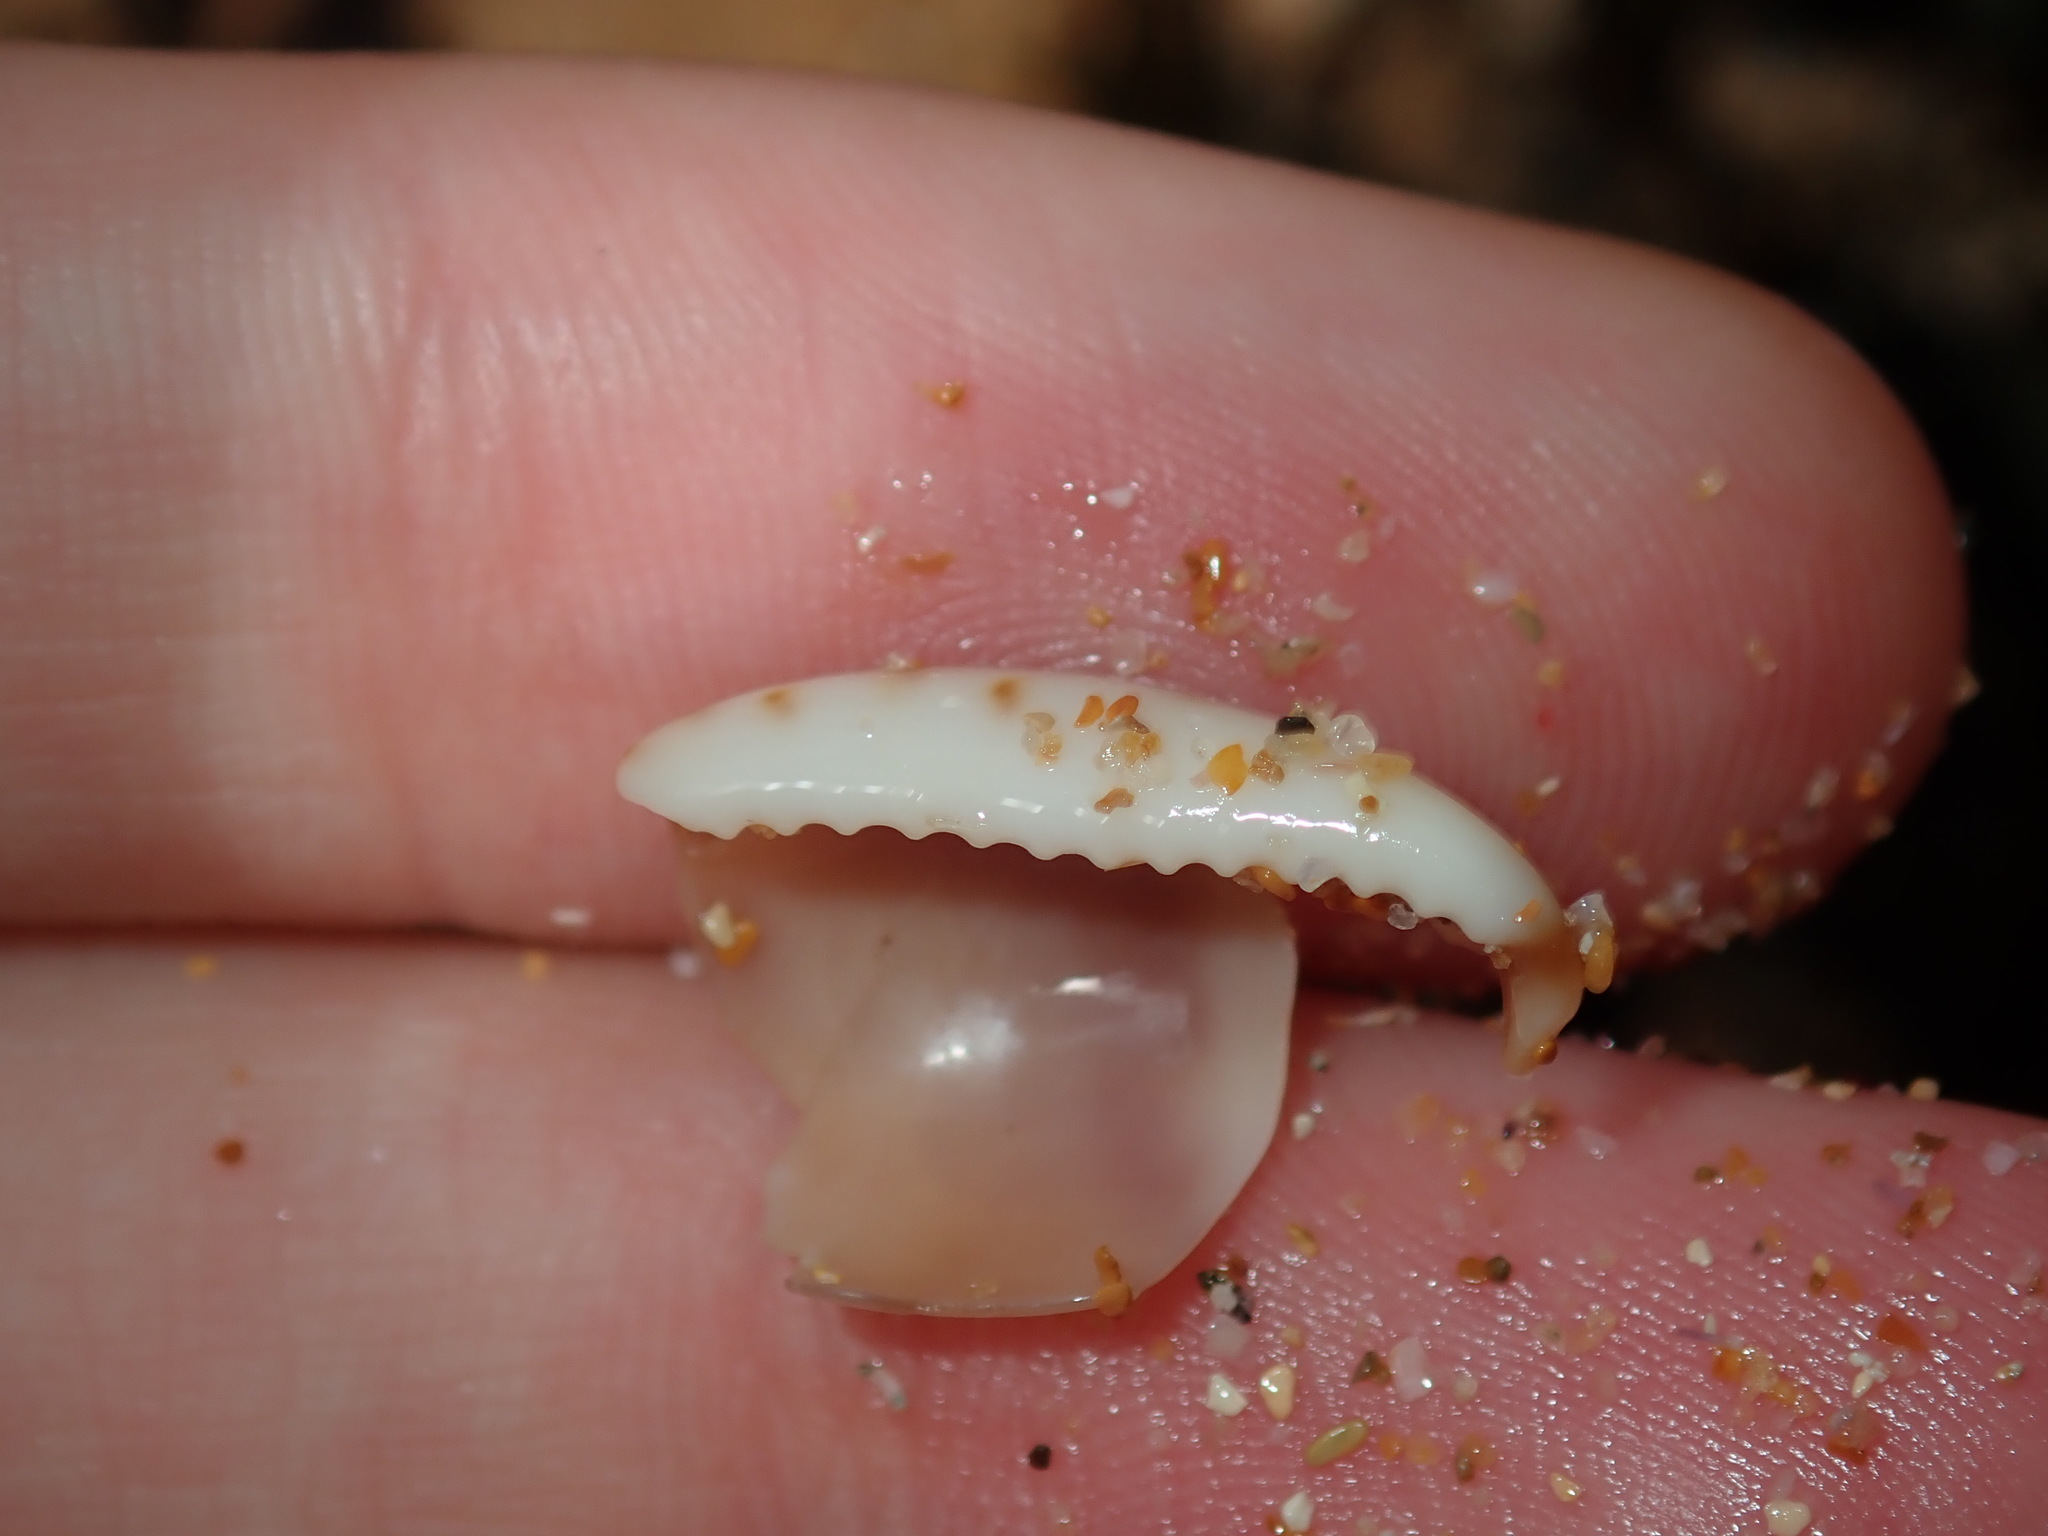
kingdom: Animalia
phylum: Mollusca
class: Gastropoda
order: Littorinimorpha
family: Cypraeidae
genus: Purpuradusta
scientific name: Purpuradusta gracilis
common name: Graceful cowrie
